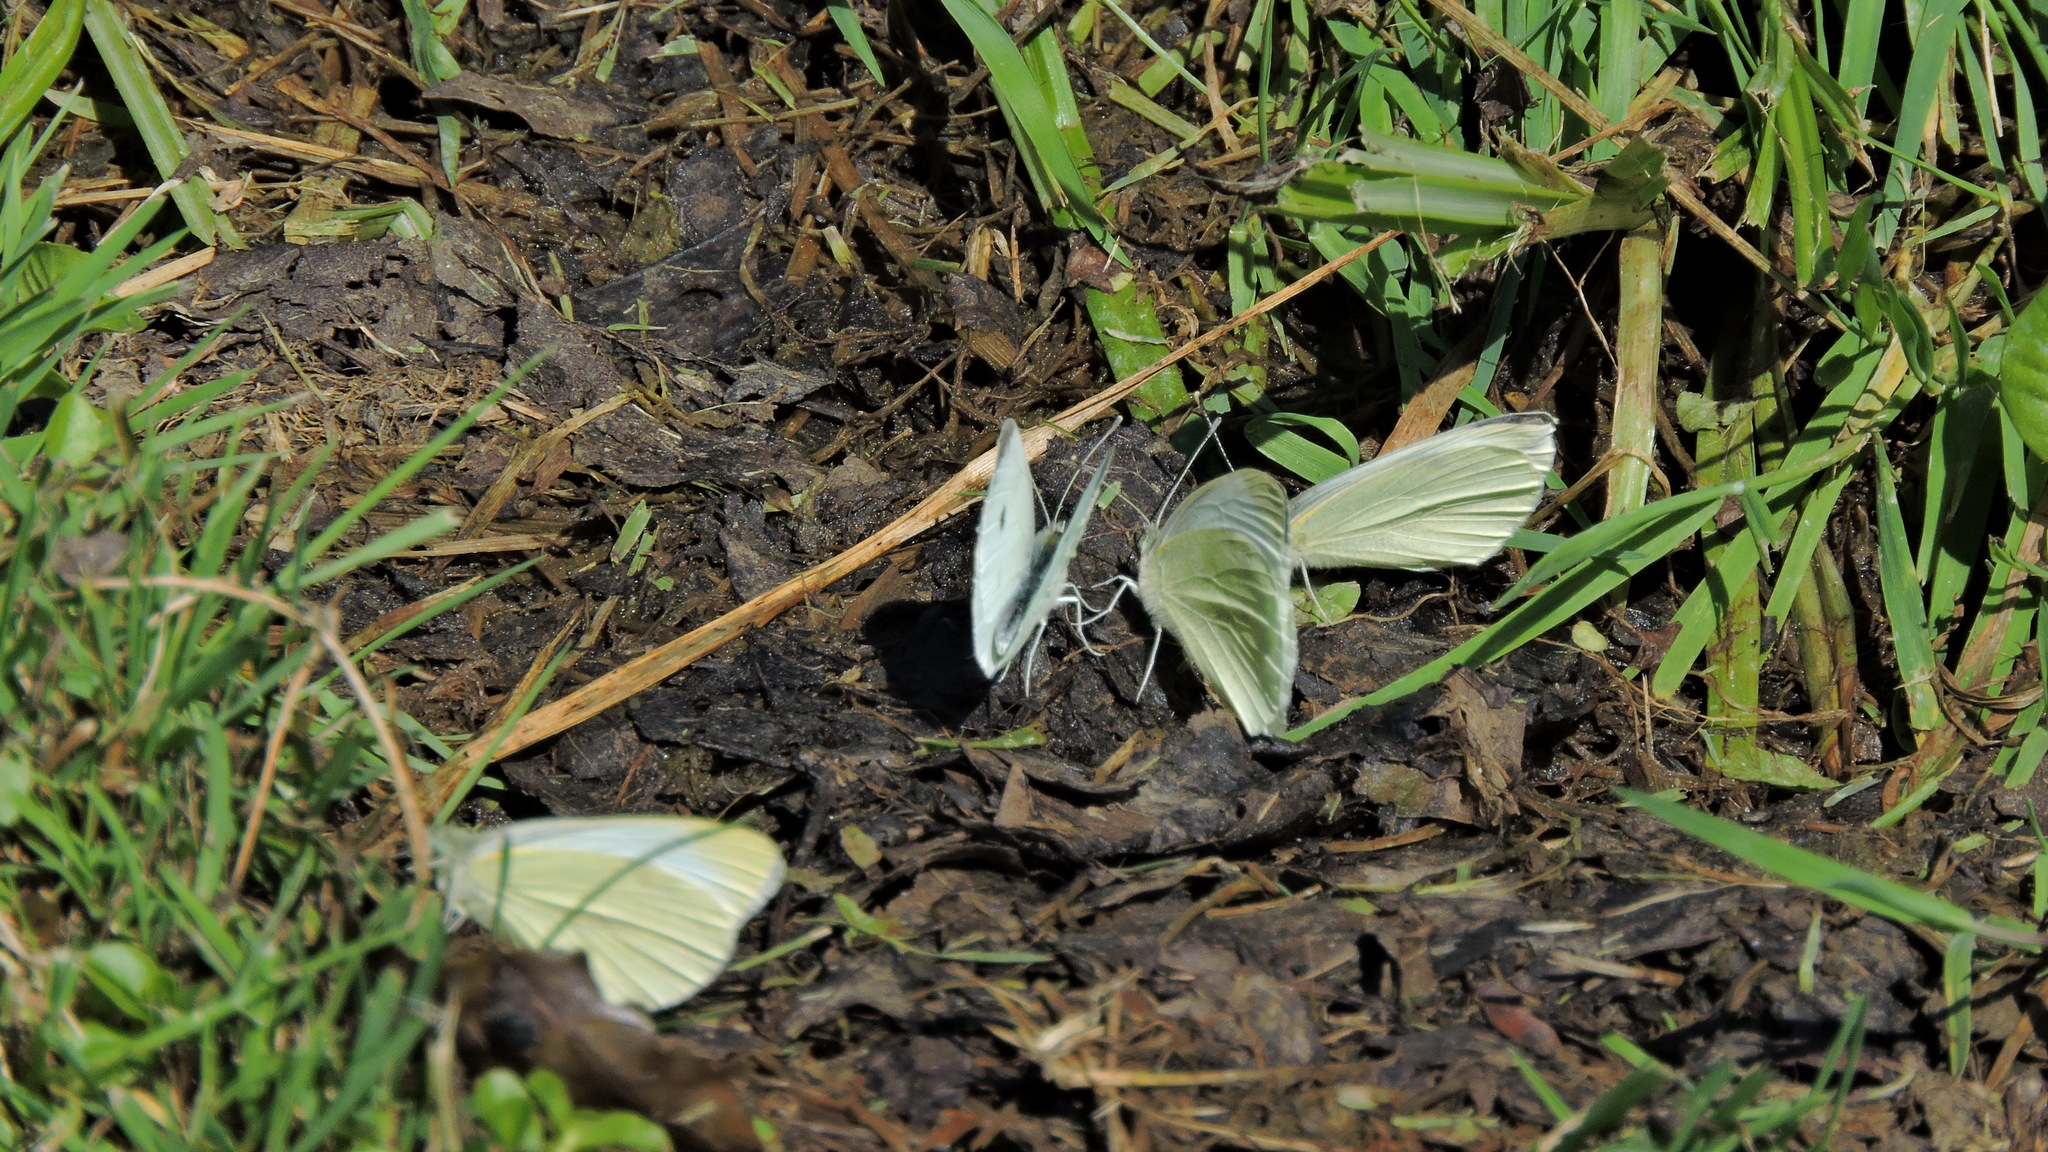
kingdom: Animalia
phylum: Arthropoda
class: Insecta
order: Lepidoptera
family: Pieridae
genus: Pieris
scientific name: Pieris rapae
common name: Small white
